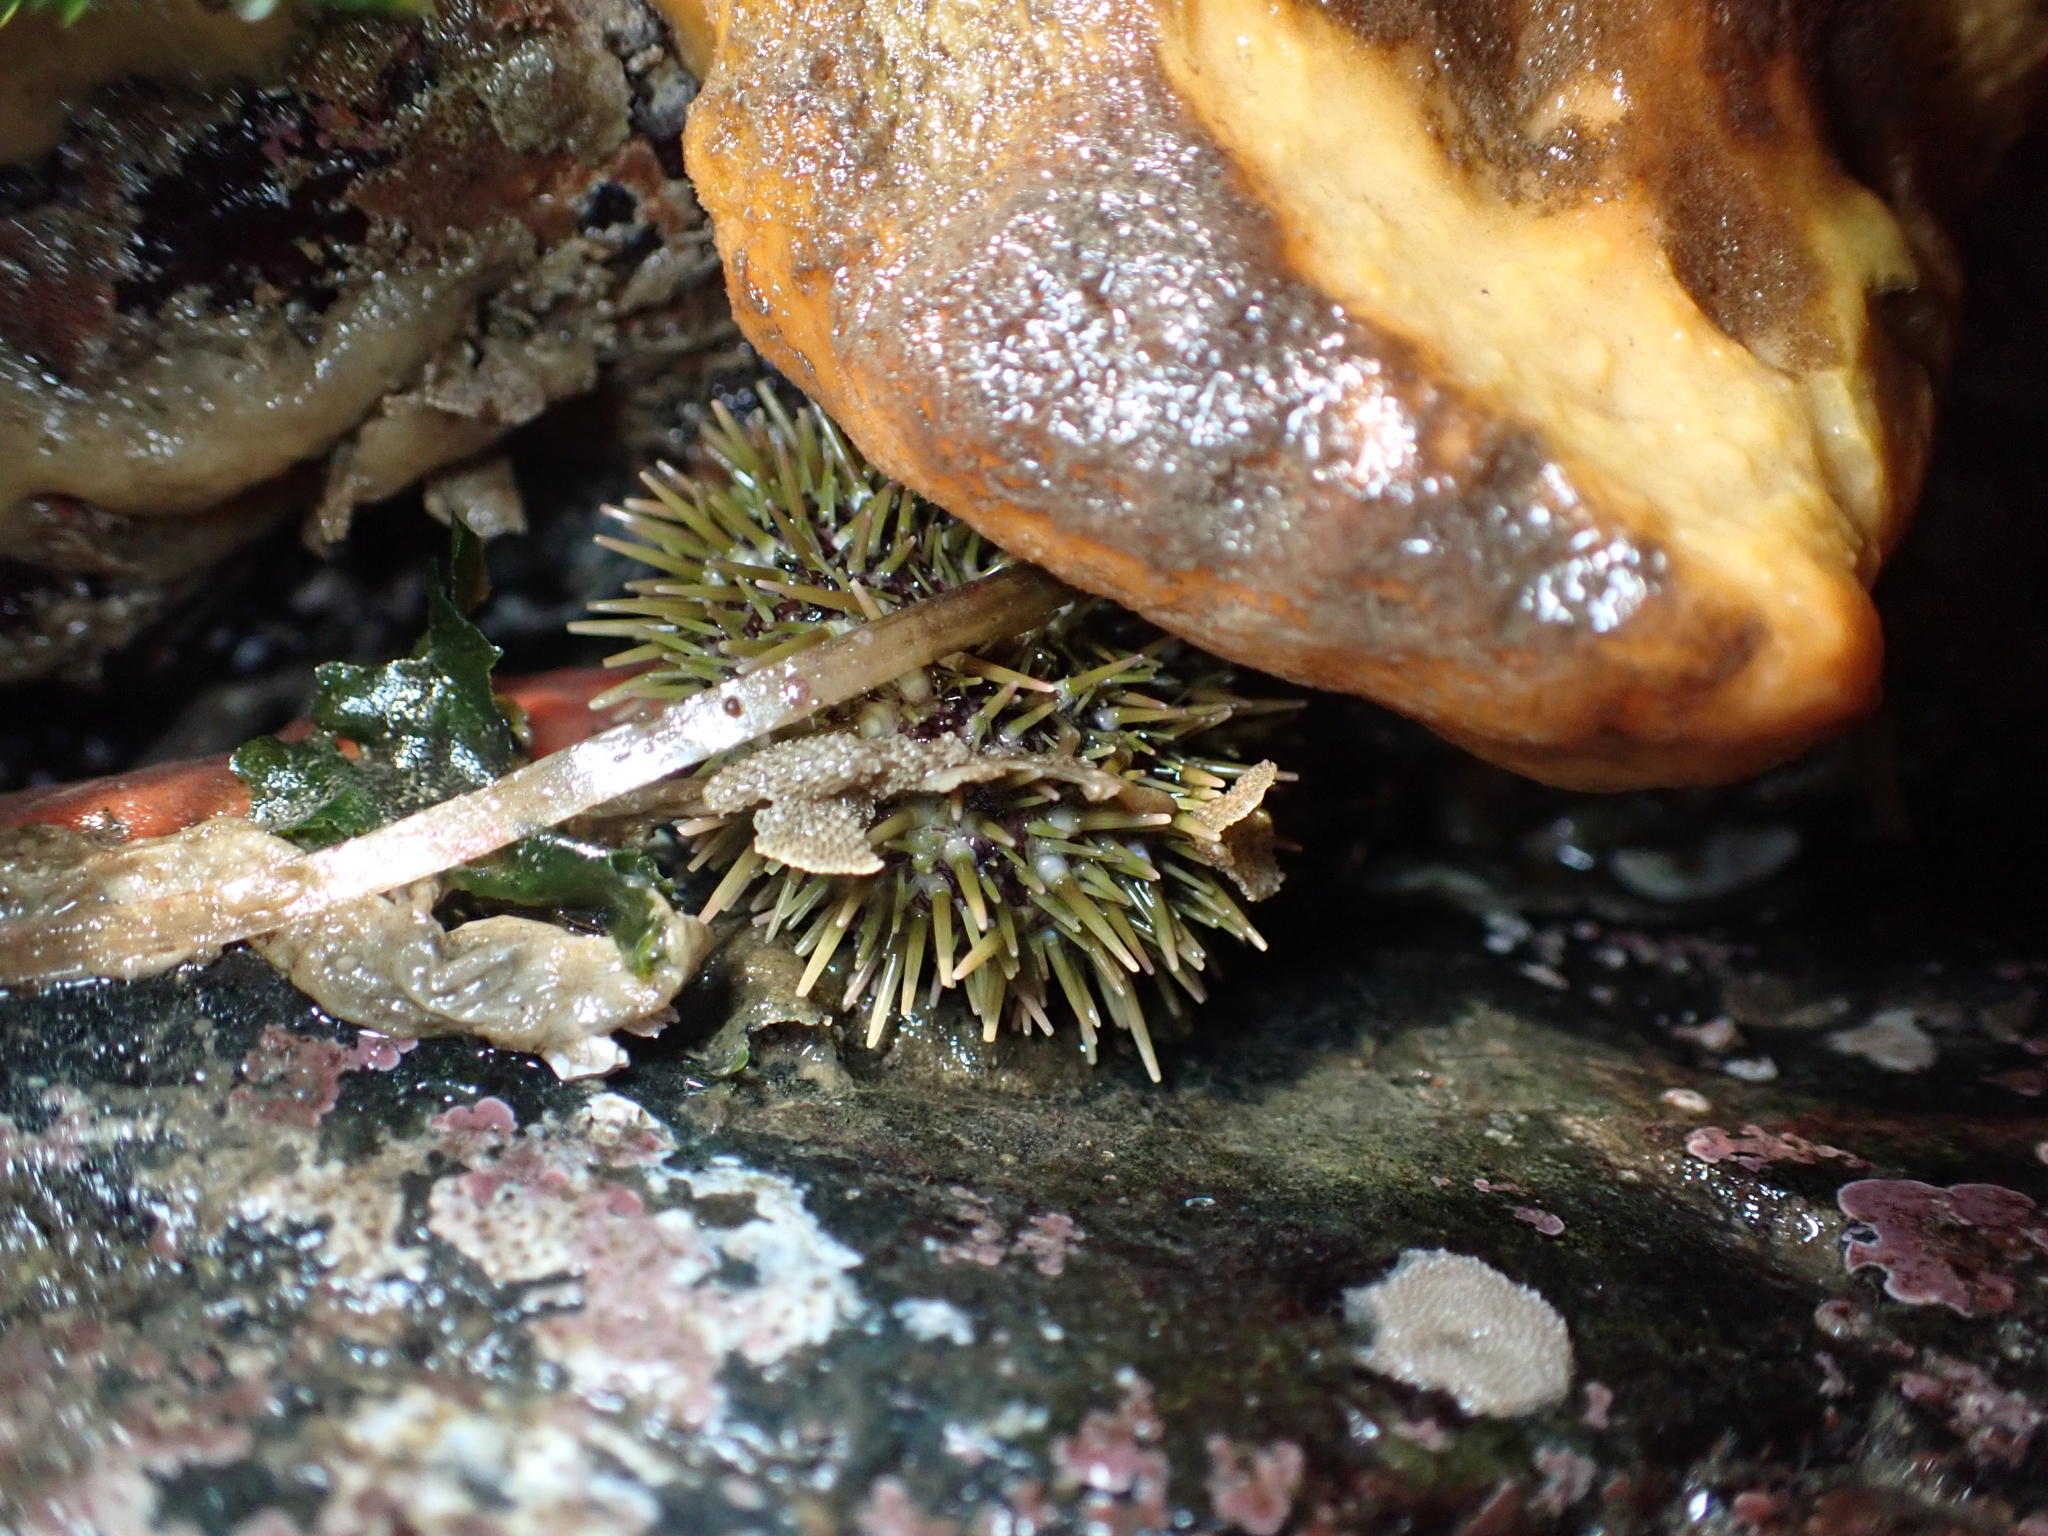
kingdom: Animalia
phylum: Echinodermata
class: Echinoidea
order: Camarodonta
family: Strongylocentrotidae
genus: Strongylocentrotus
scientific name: Strongylocentrotus droebachiensis
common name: Northern sea urchin
